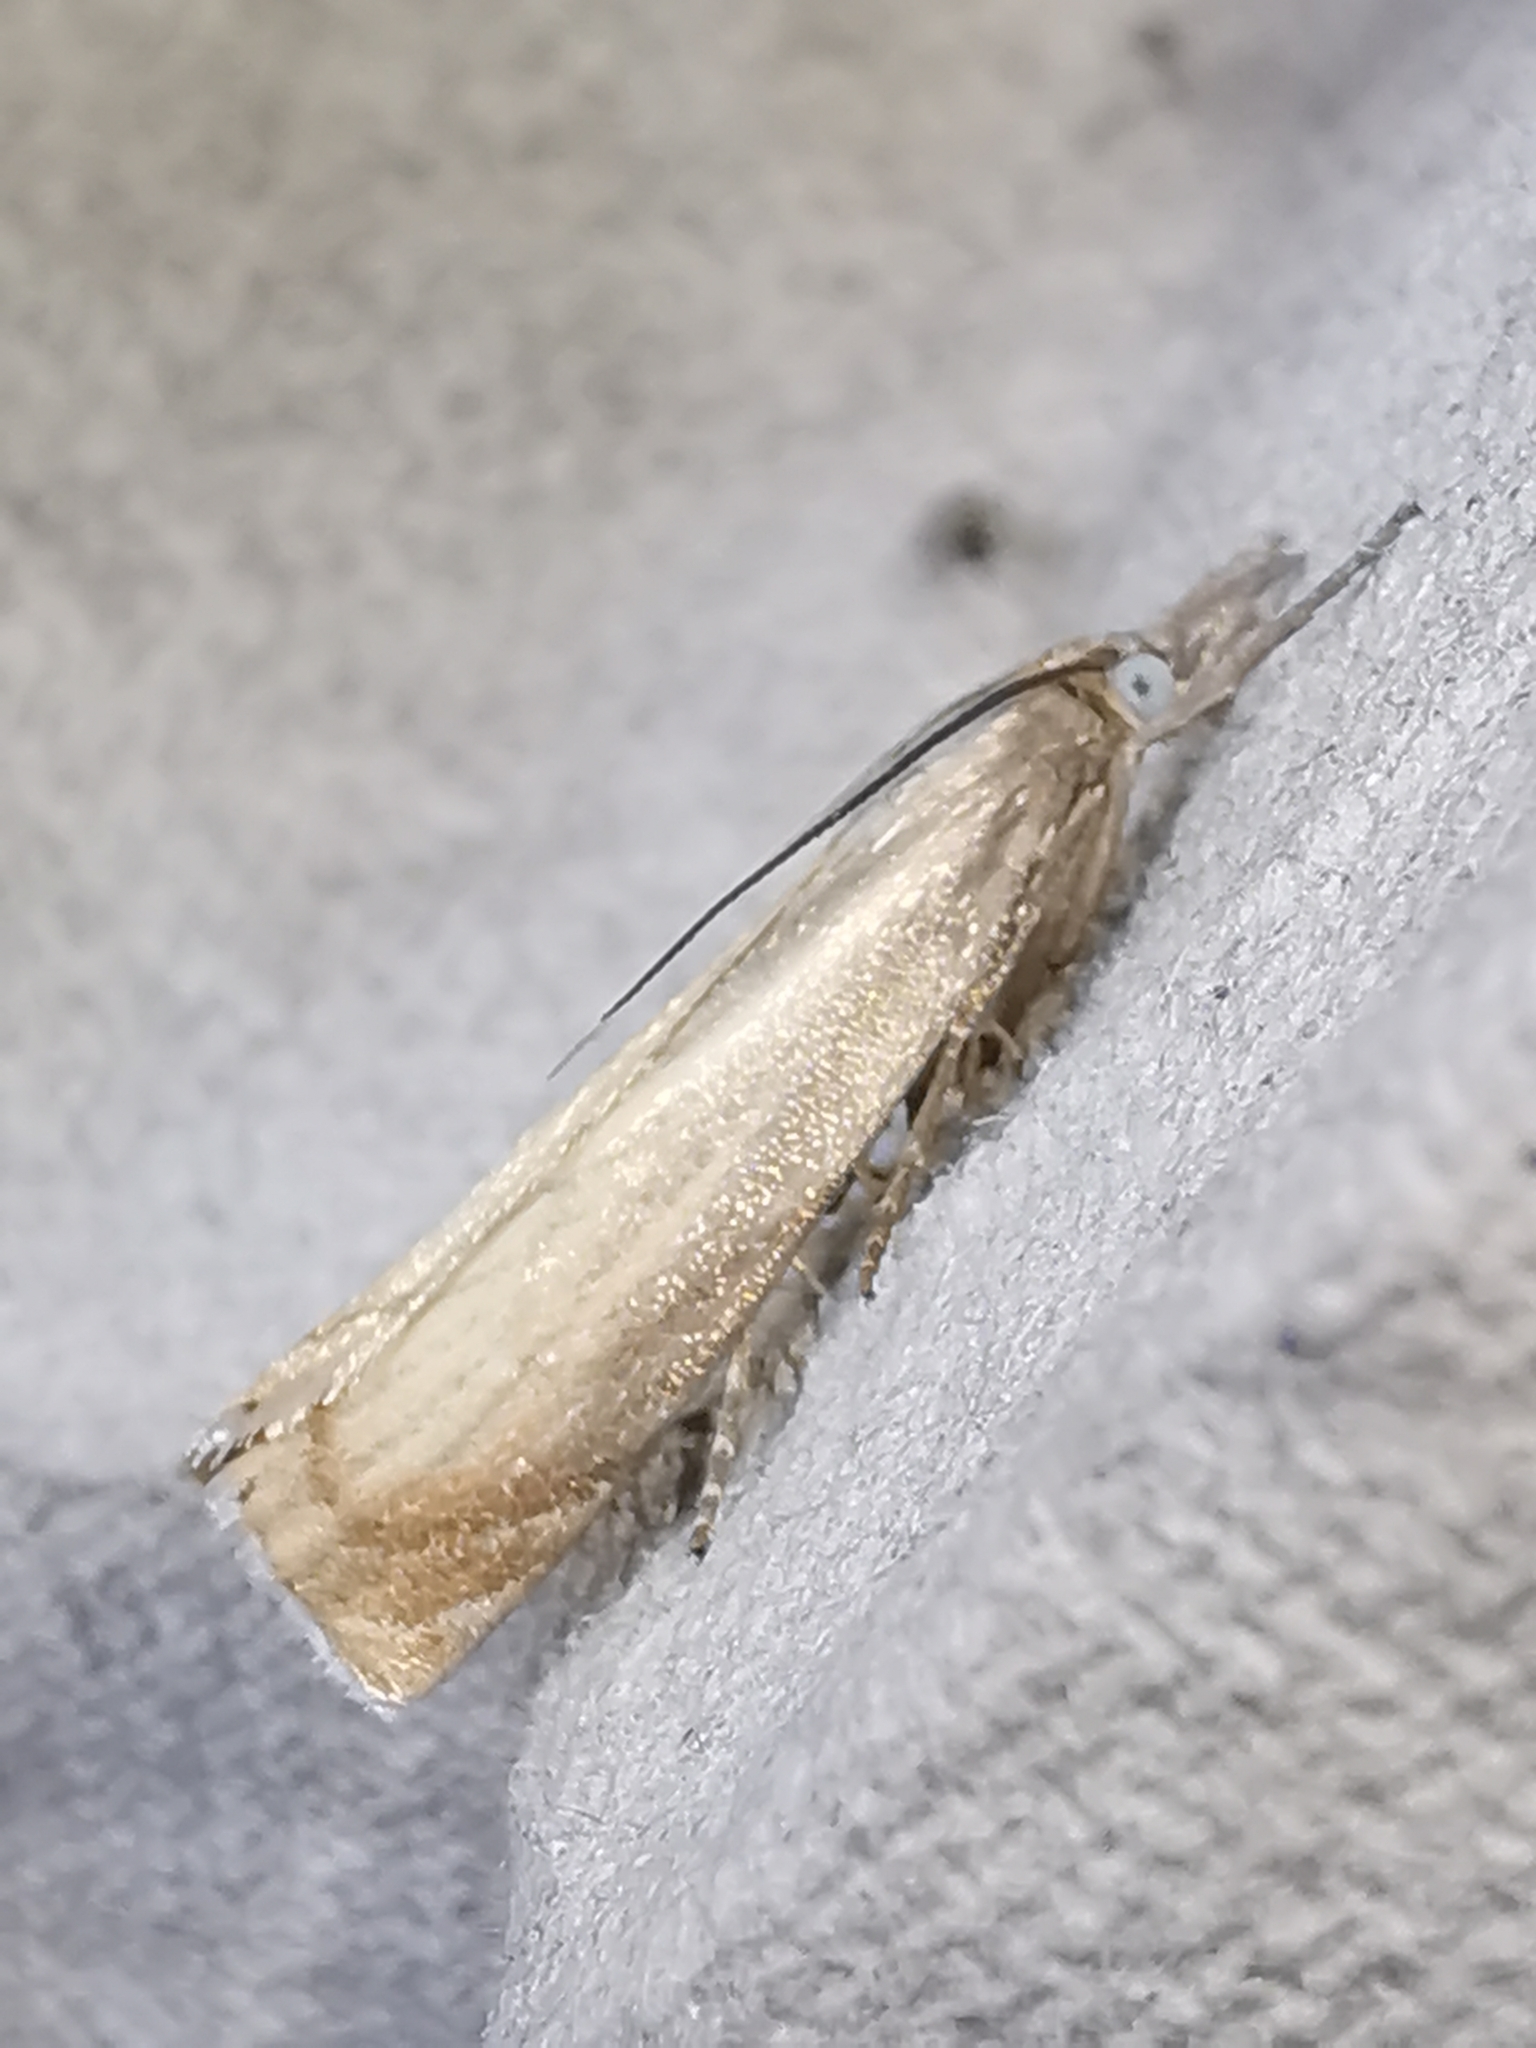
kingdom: Animalia
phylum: Arthropoda
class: Insecta
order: Lepidoptera
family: Crambidae
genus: Chrysoteuchia
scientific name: Chrysoteuchia culmella
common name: Garden grass-veneer
